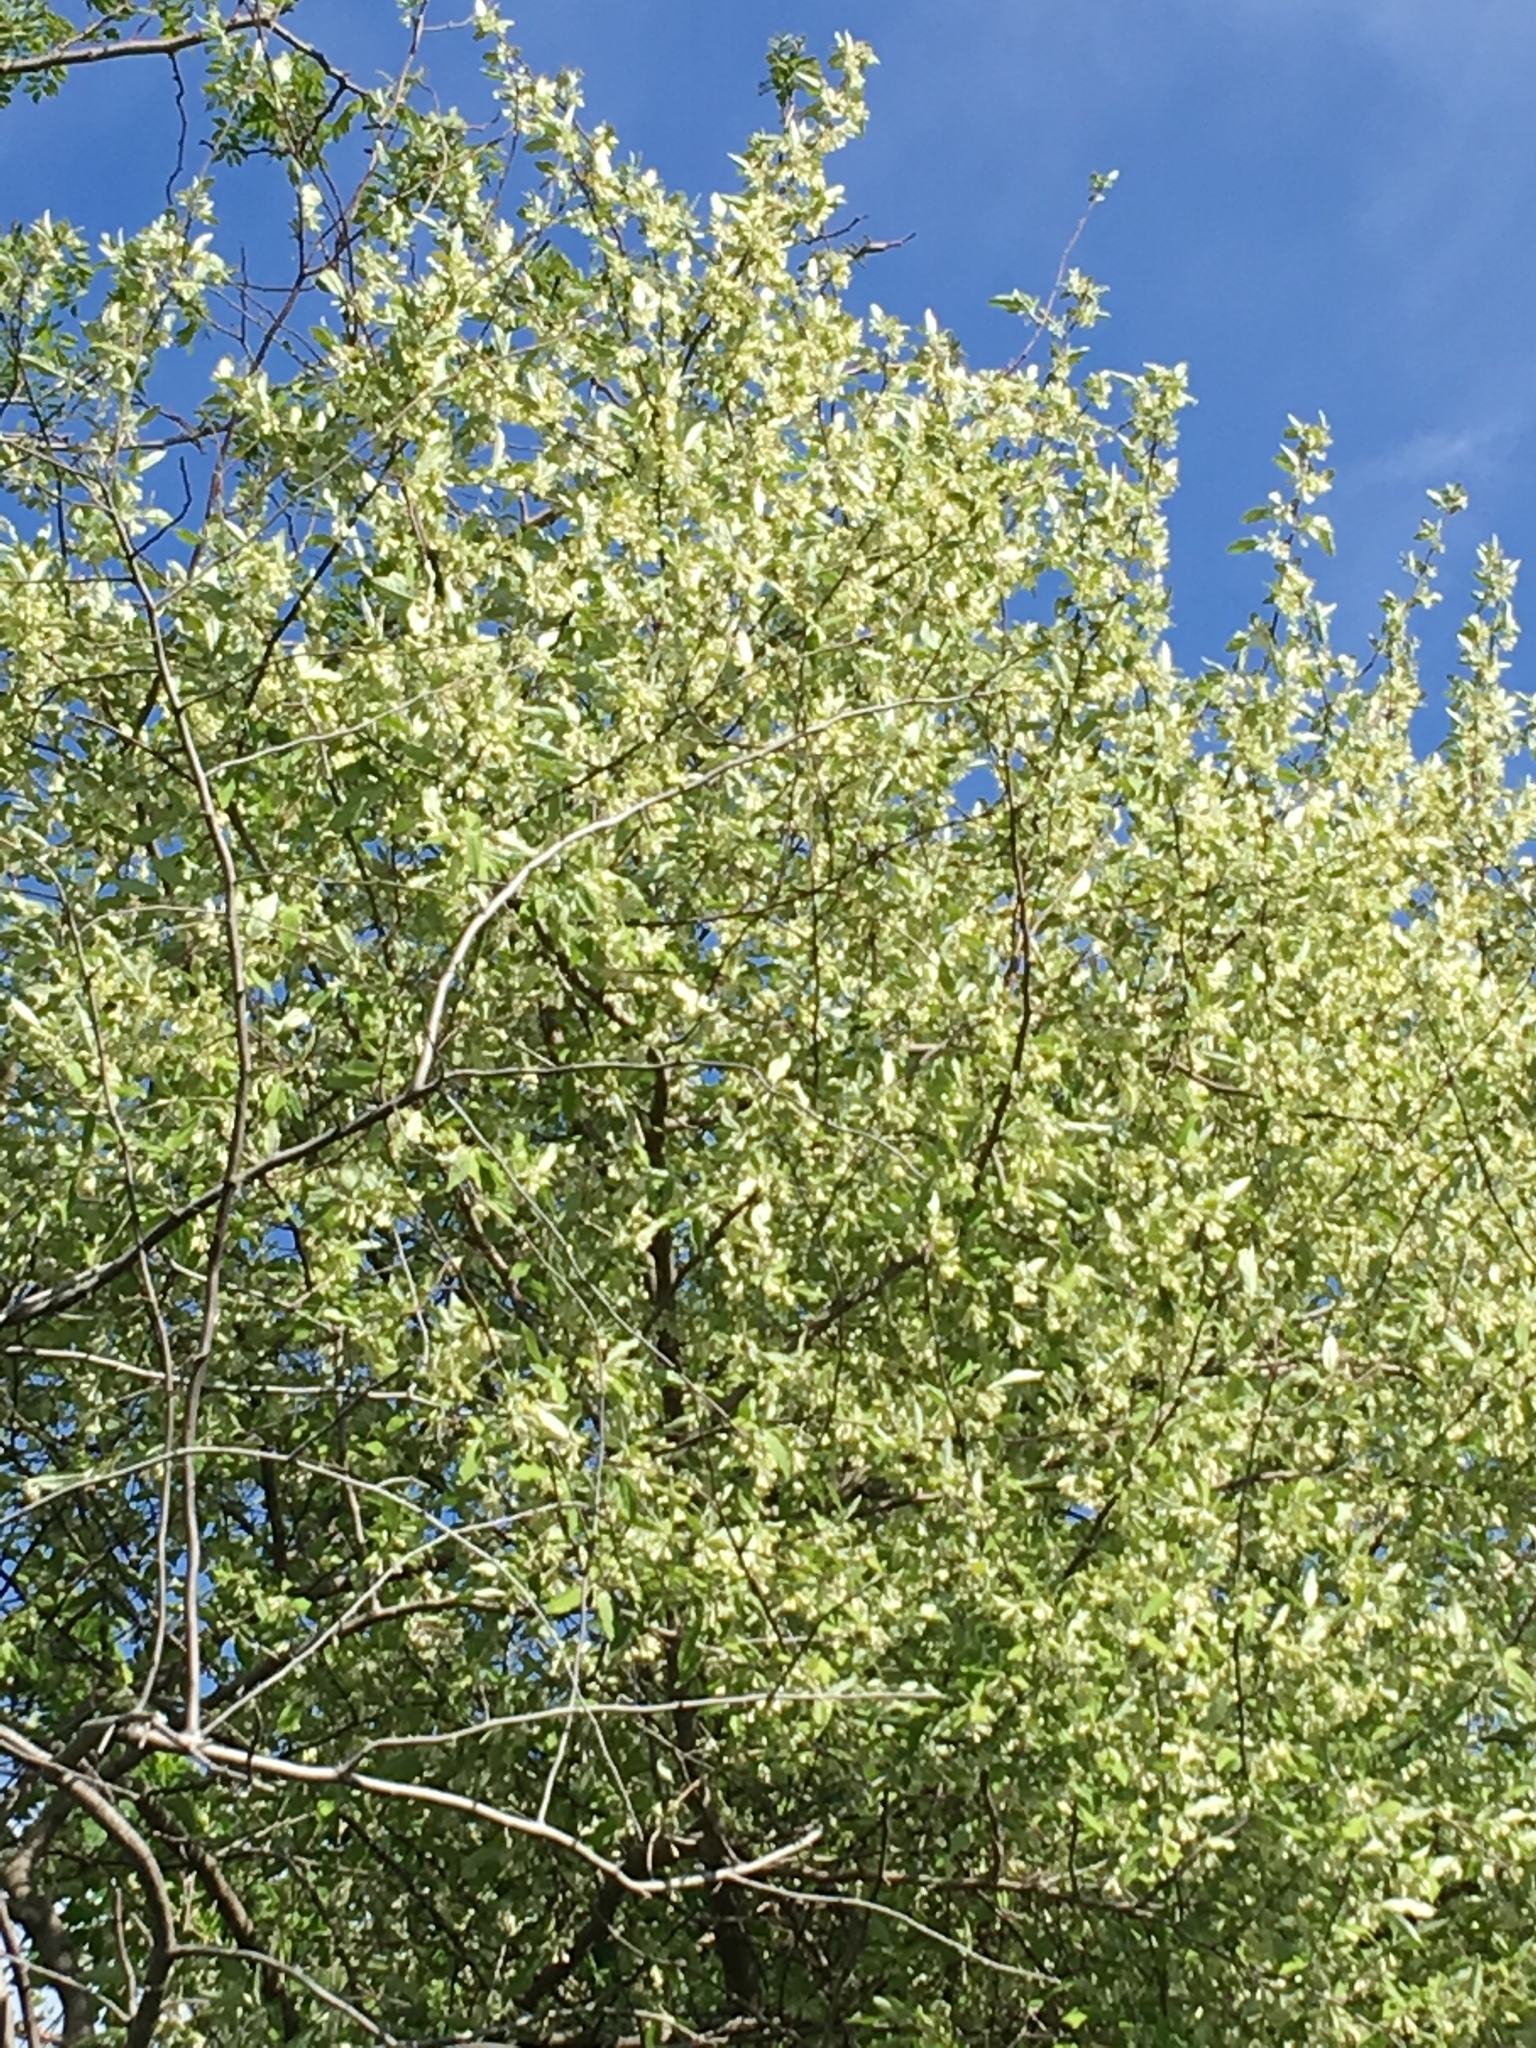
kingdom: Plantae
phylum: Tracheophyta
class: Magnoliopsida
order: Rosales
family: Elaeagnaceae
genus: Elaeagnus
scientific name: Elaeagnus umbellata
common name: Autumn olive
